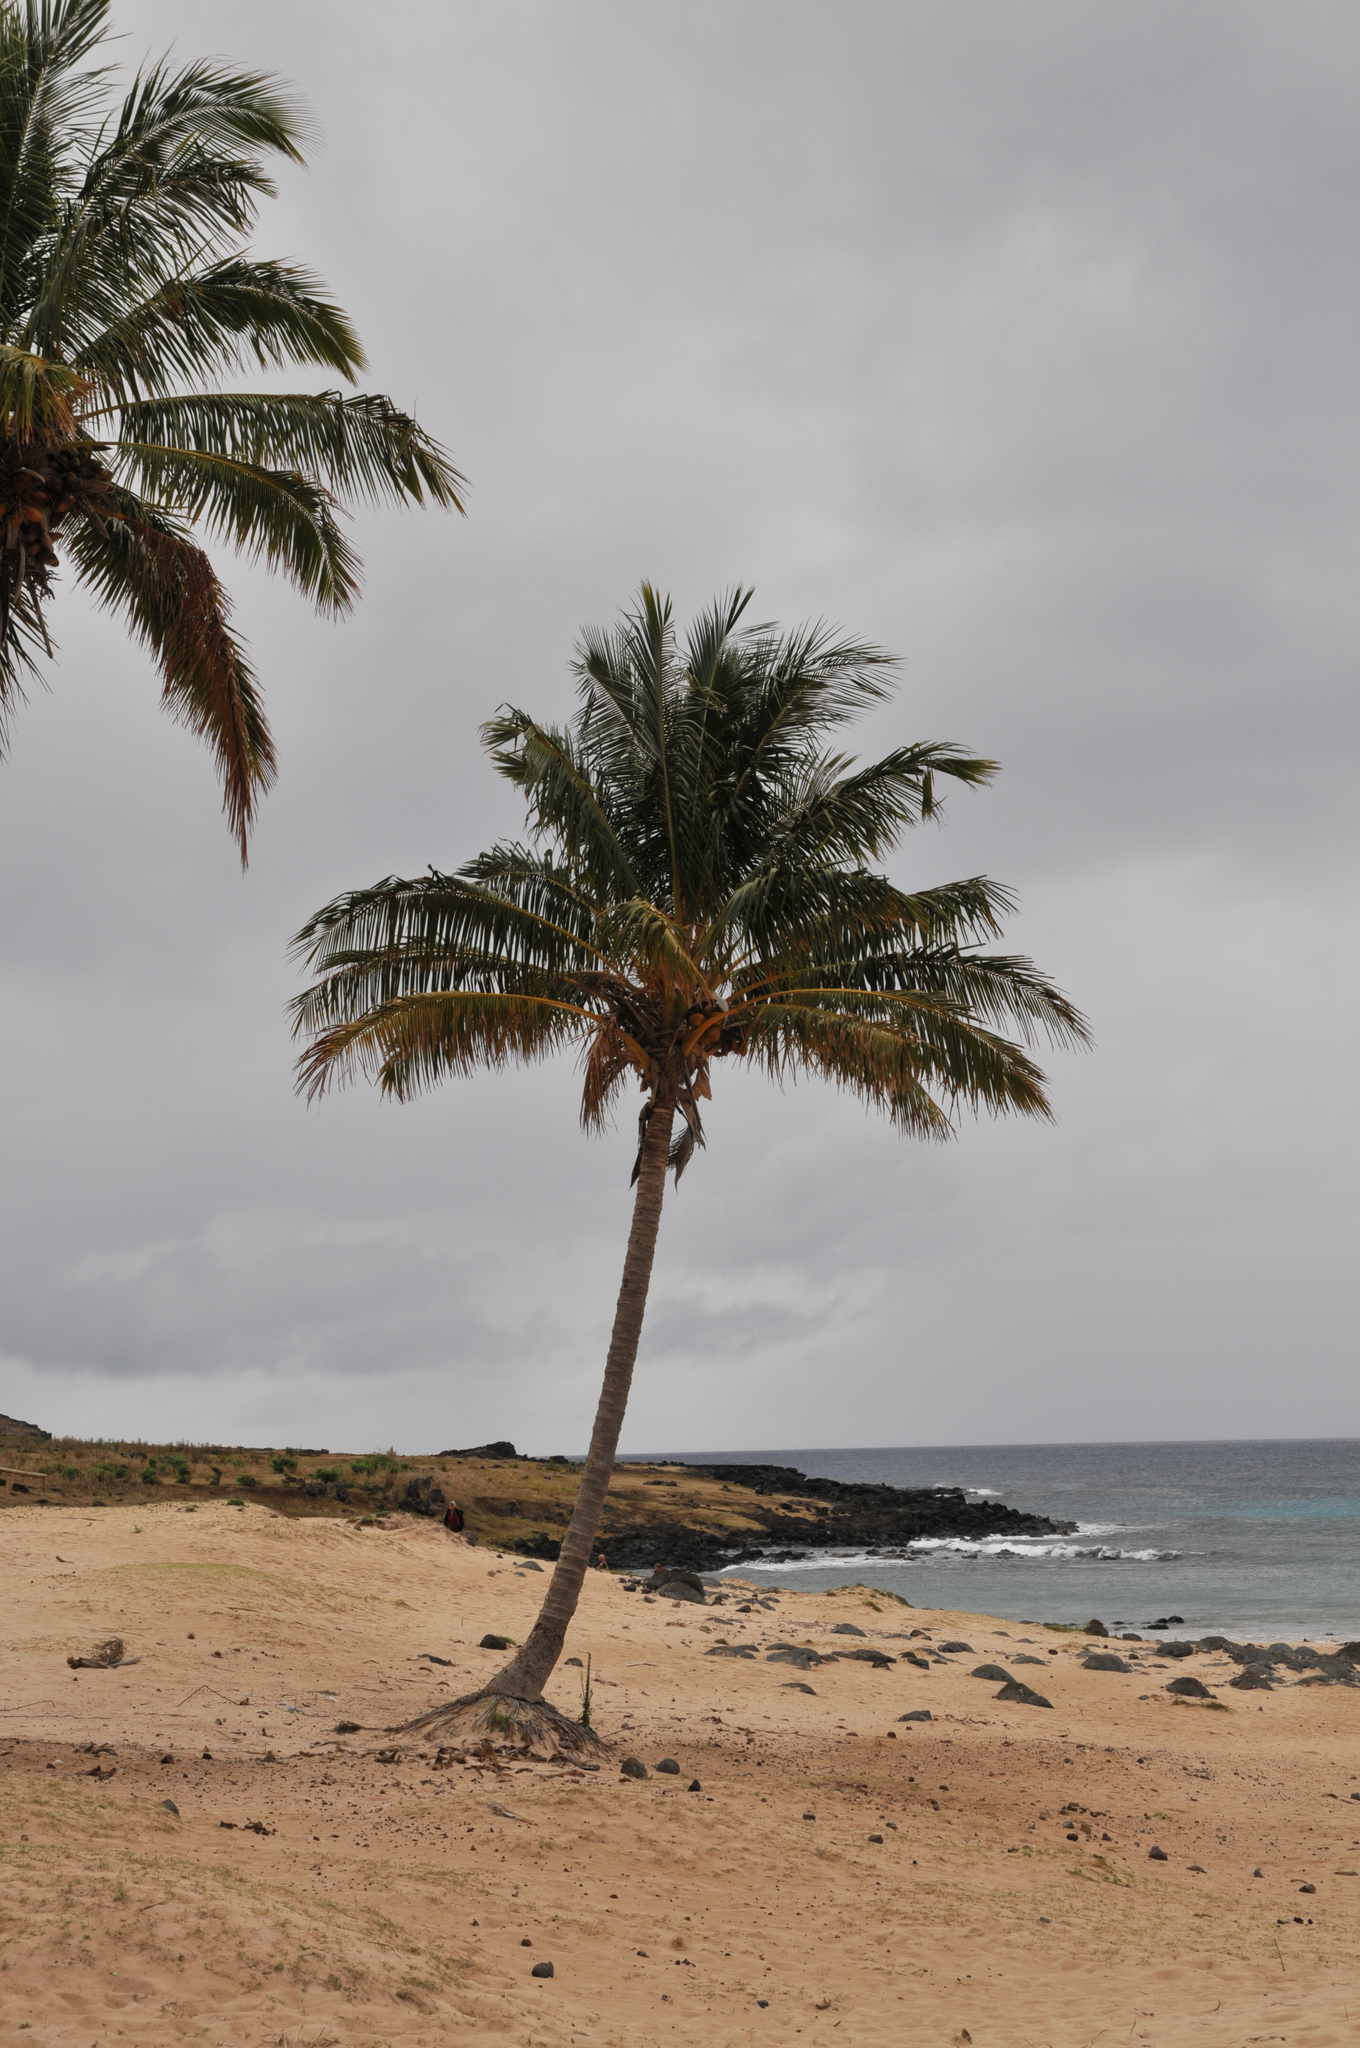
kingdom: Plantae
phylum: Tracheophyta
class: Liliopsida
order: Arecales
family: Arecaceae
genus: Cocos
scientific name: Cocos nucifera
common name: Coconut palm
